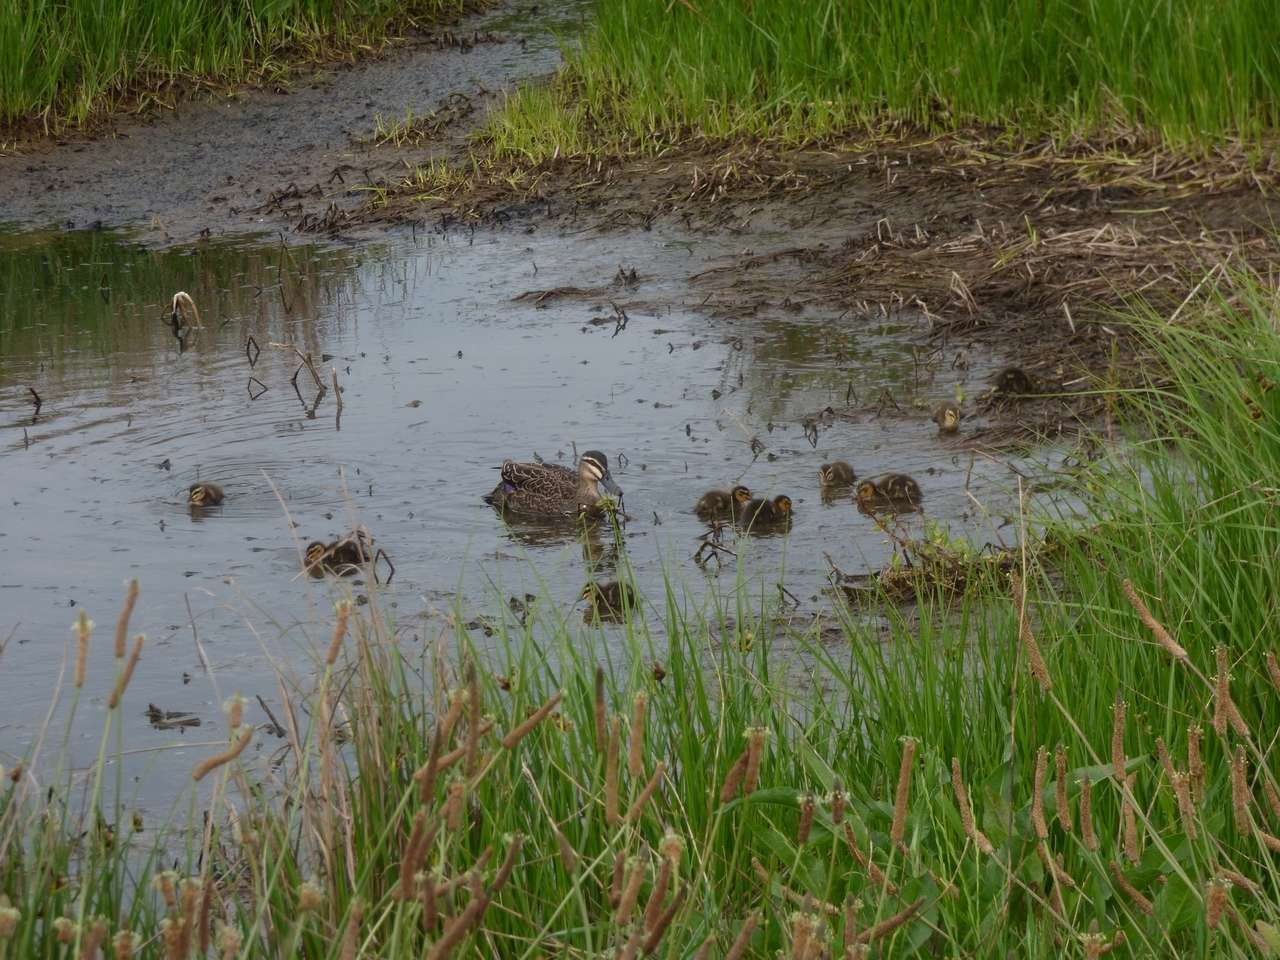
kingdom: Animalia
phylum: Chordata
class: Aves
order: Anseriformes
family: Anatidae
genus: Anas
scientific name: Anas superciliosa
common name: Pacific black duck
